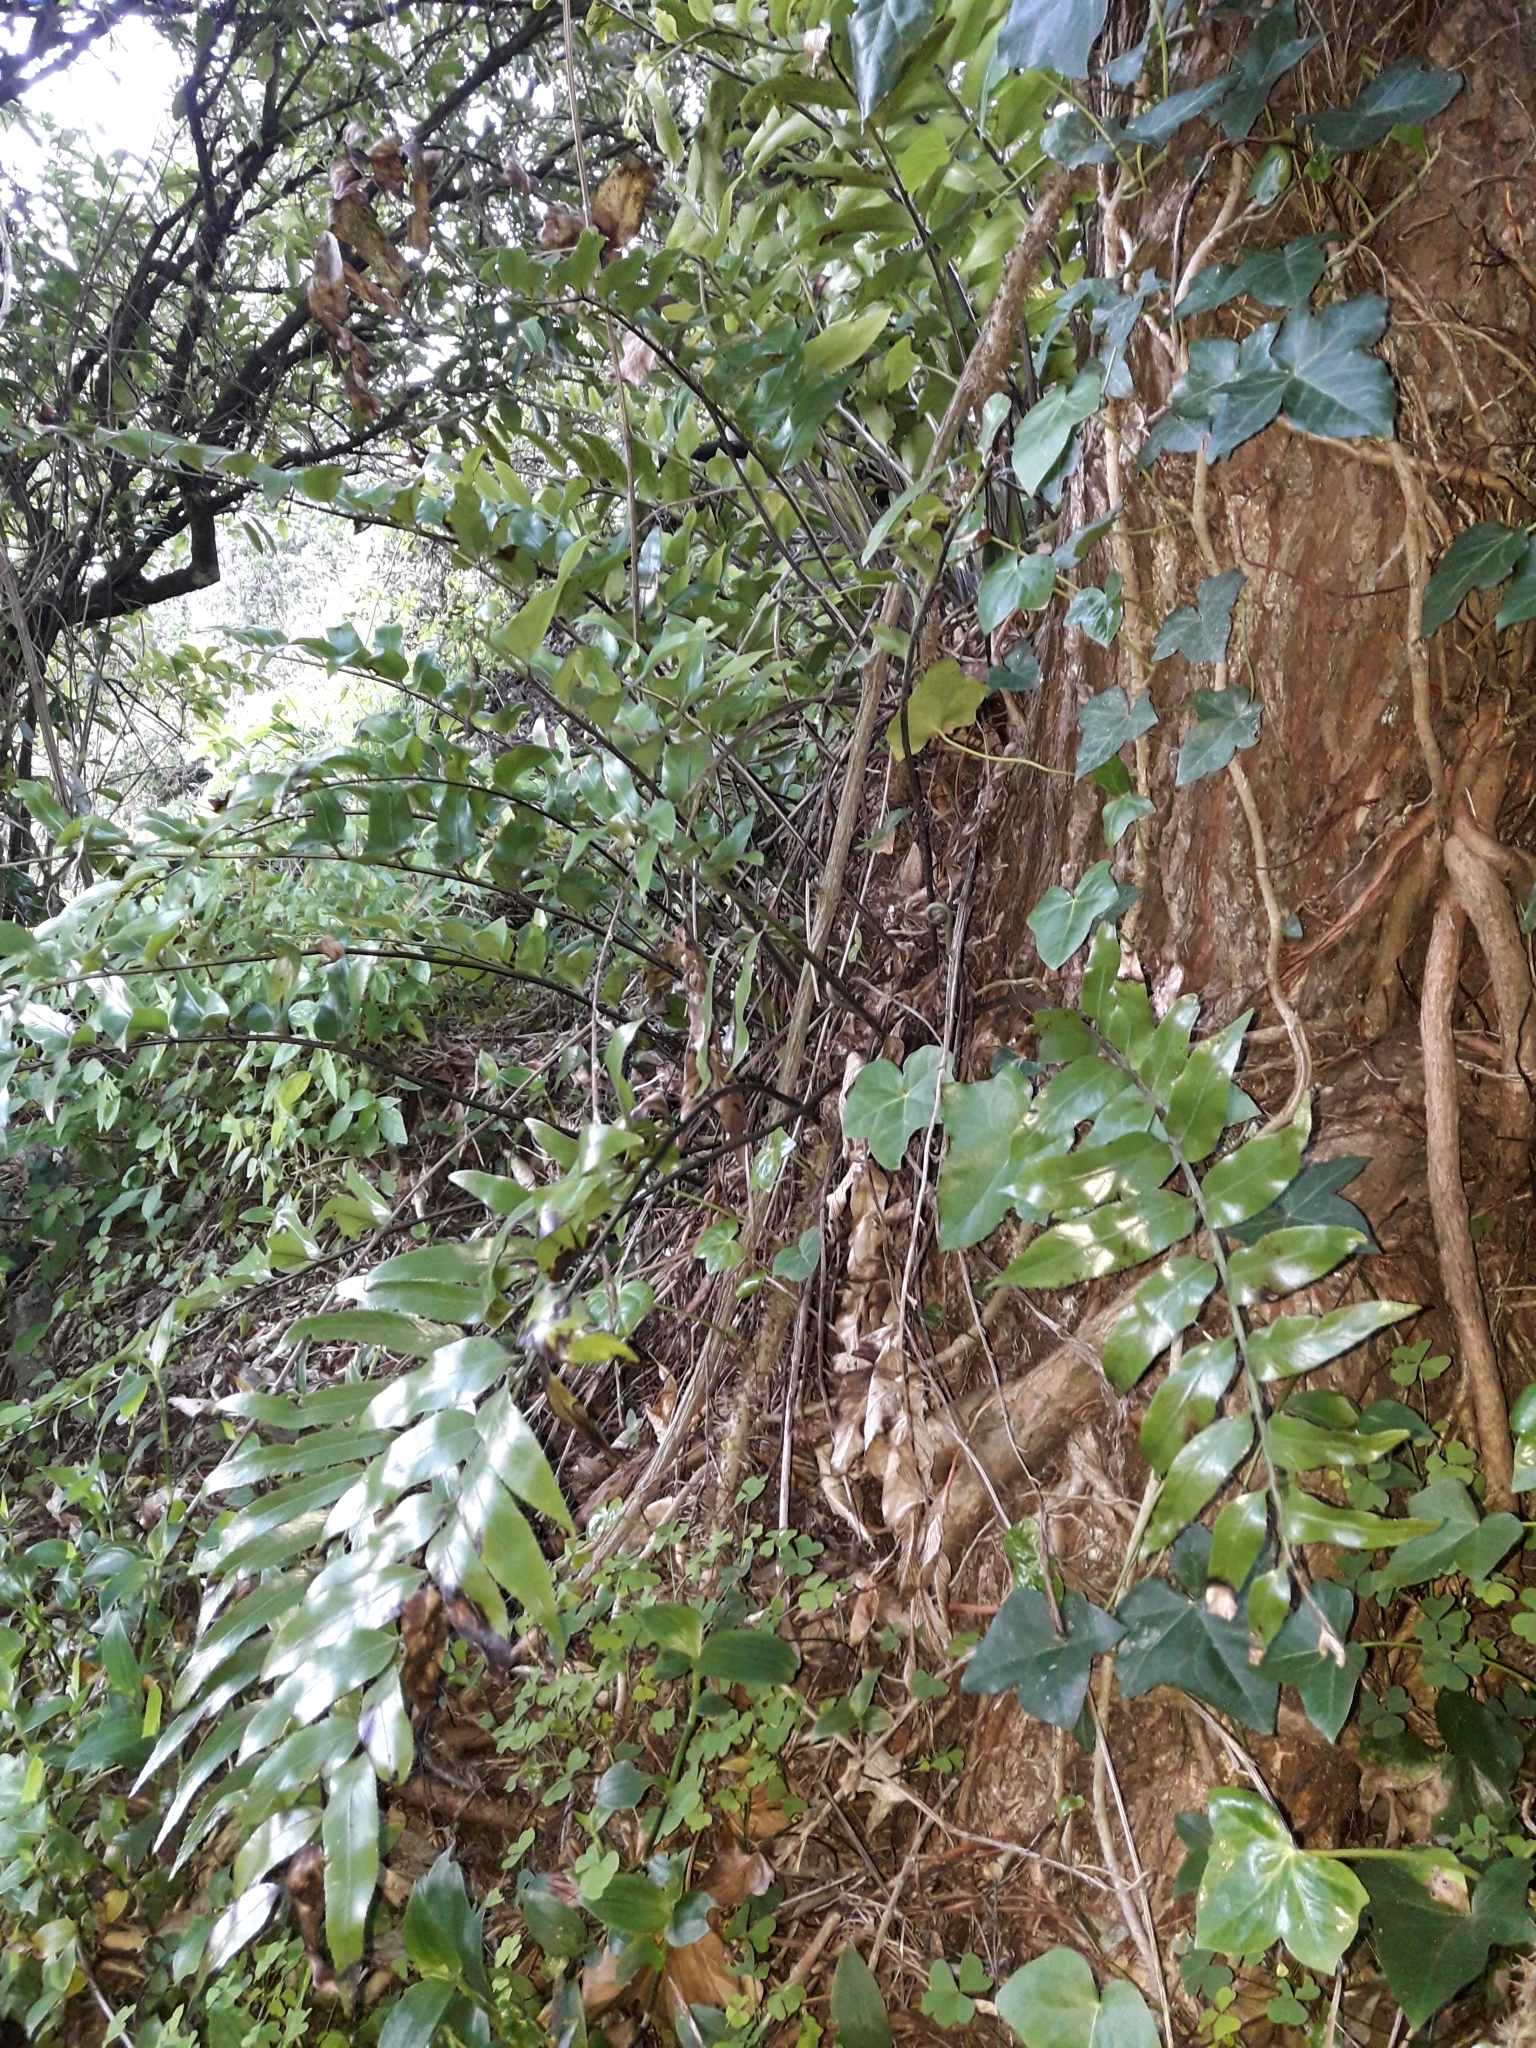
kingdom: Plantae
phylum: Tracheophyta
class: Polypodiopsida
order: Polypodiales
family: Aspleniaceae
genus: Asplenium
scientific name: Asplenium oblongifolium
